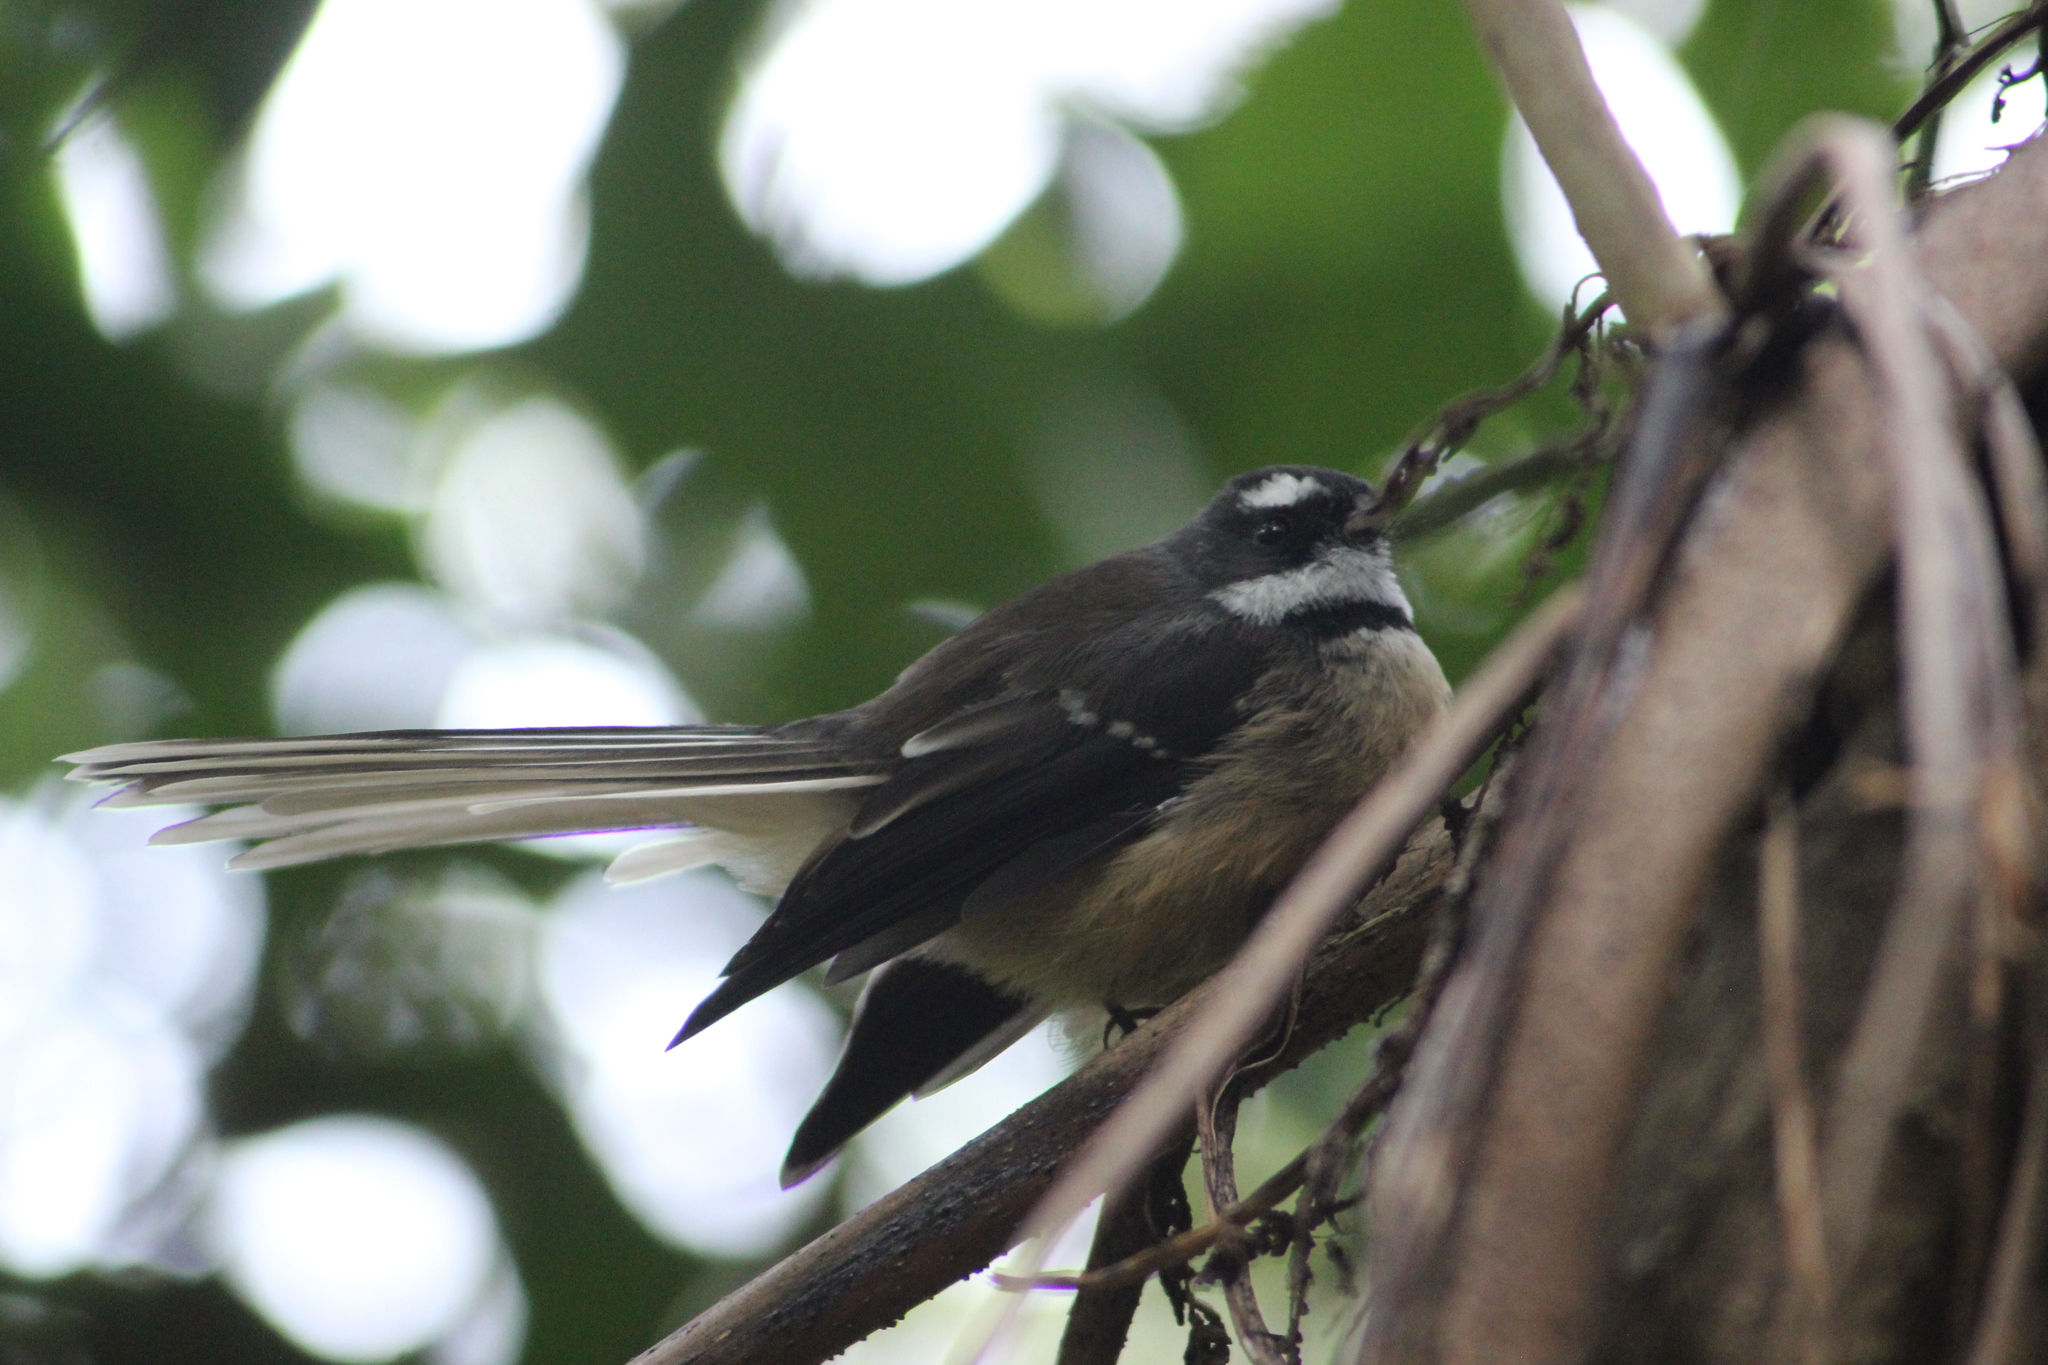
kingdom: Animalia
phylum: Chordata
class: Aves
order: Passeriformes
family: Rhipiduridae
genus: Rhipidura
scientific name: Rhipidura fuliginosa
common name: New zealand fantail
